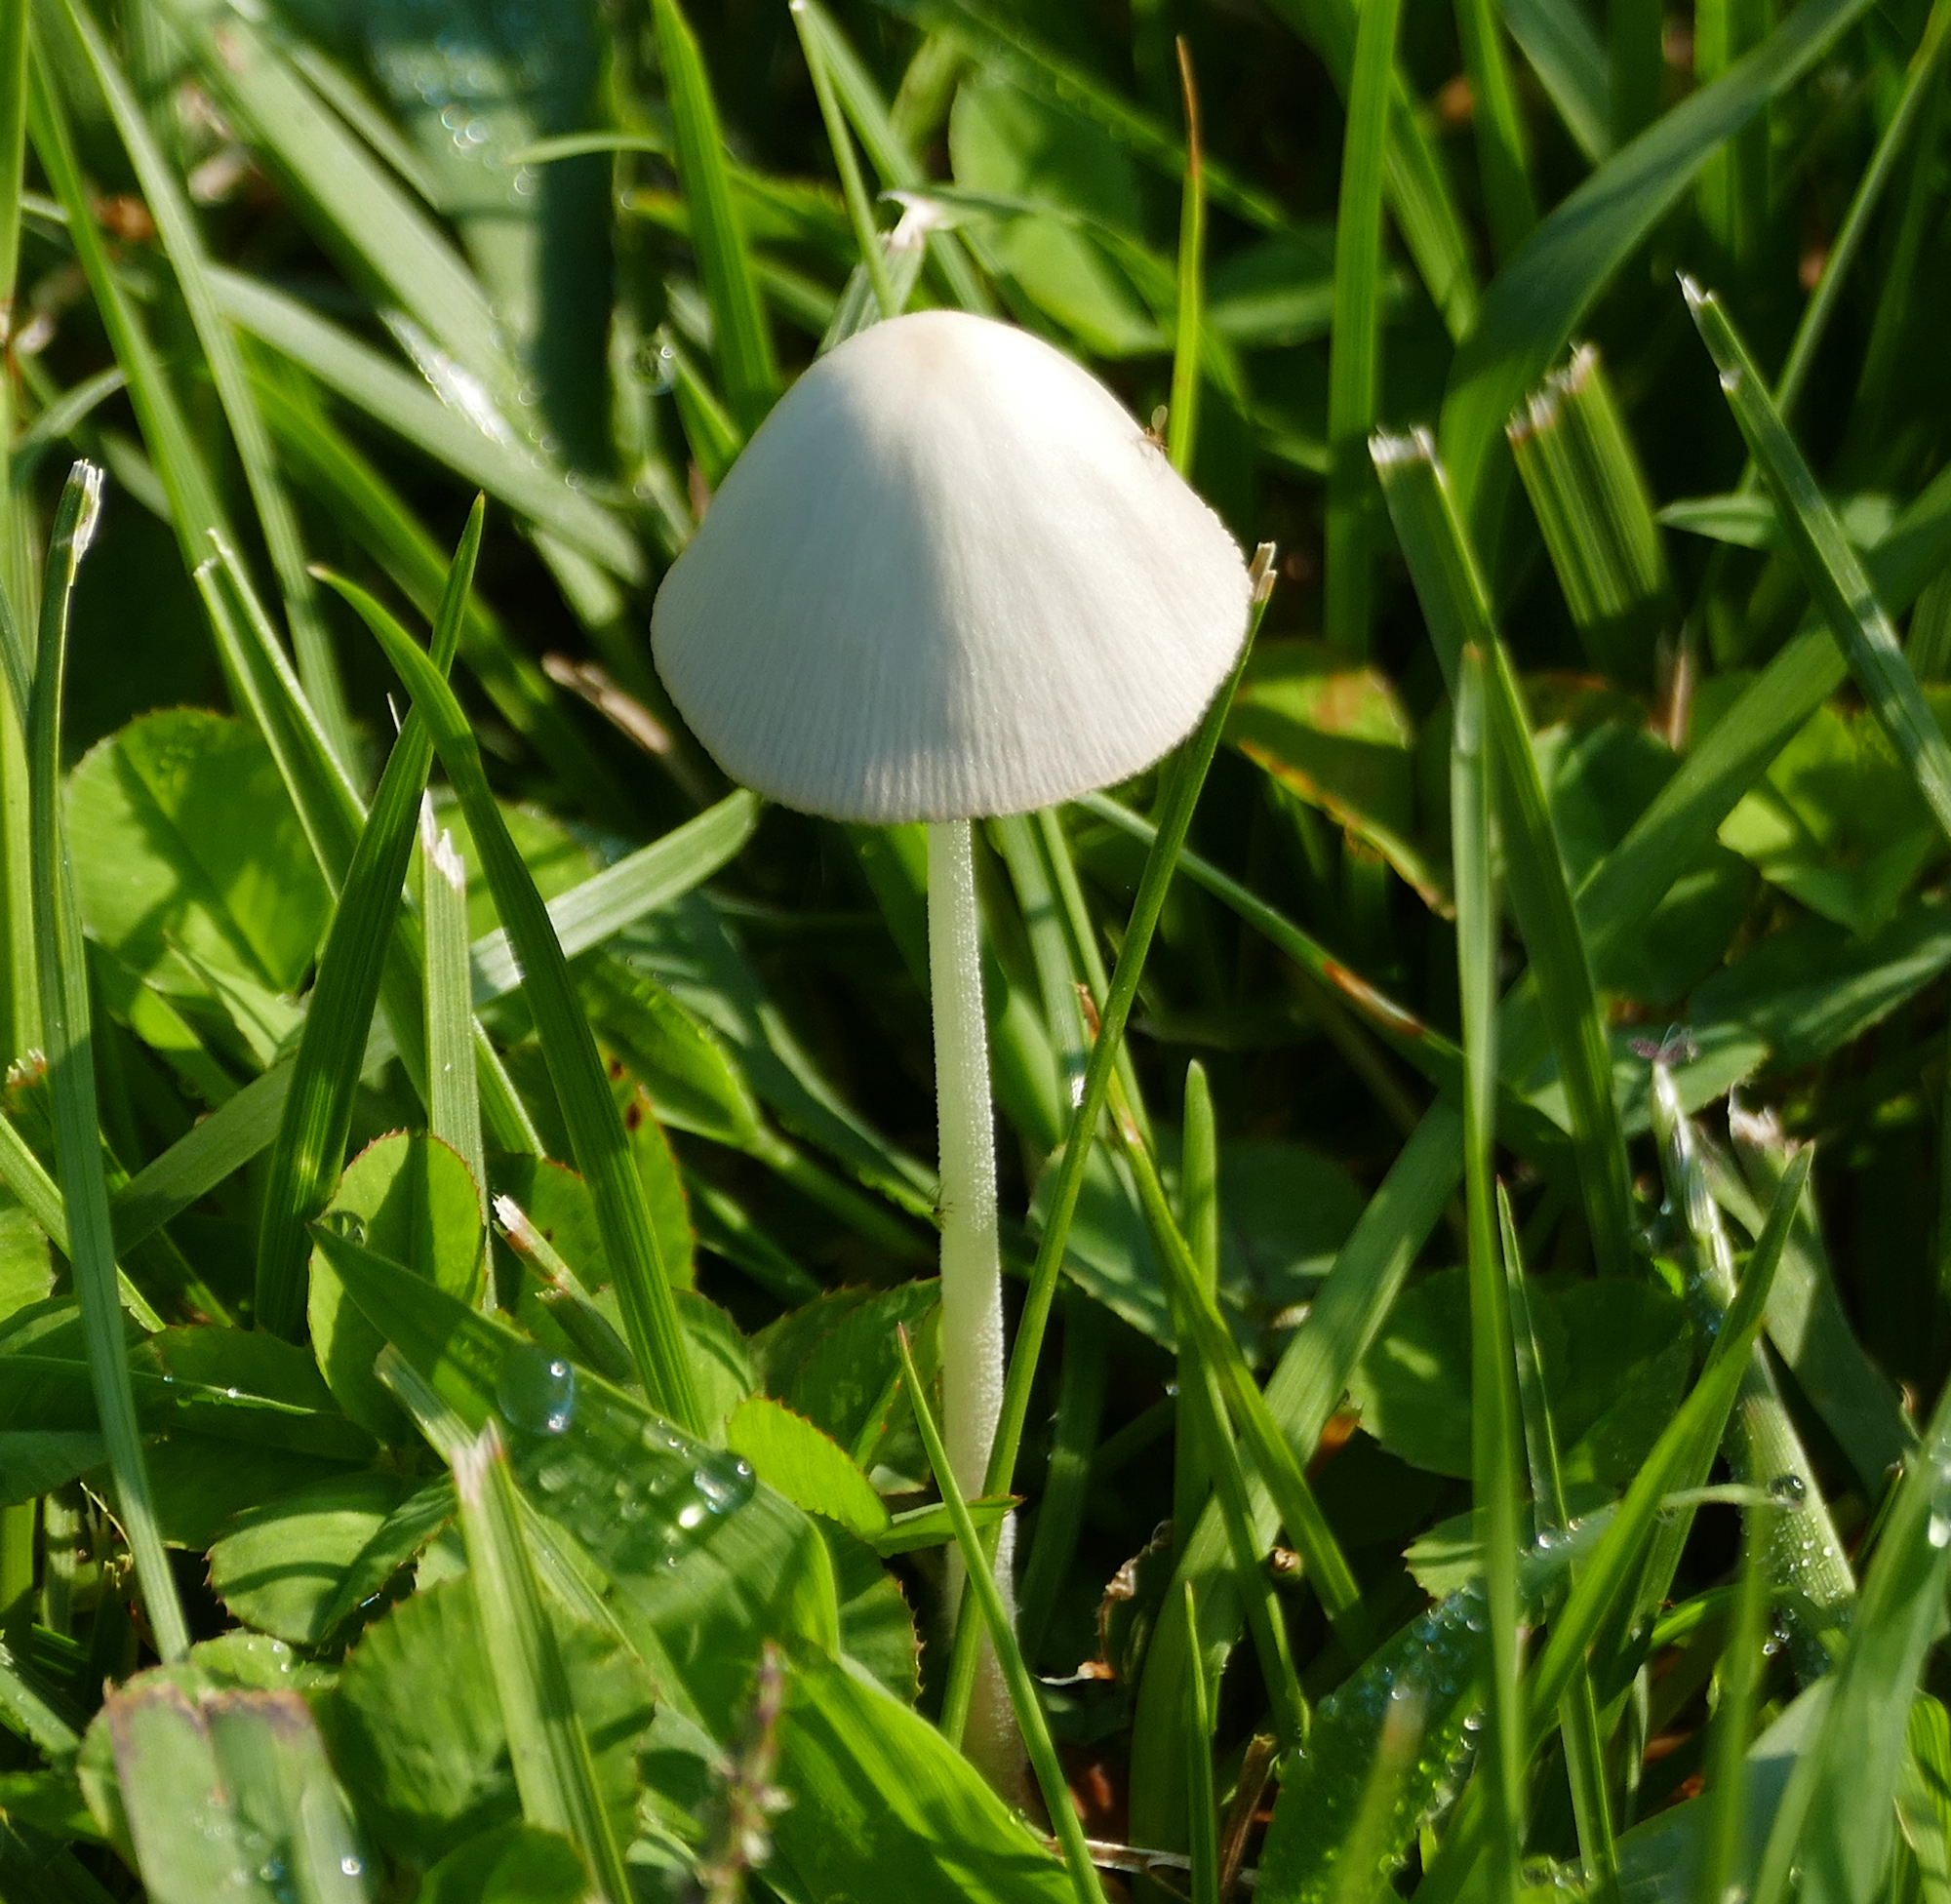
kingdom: Fungi
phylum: Basidiomycota
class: Agaricomycetes
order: Agaricales
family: Bolbitiaceae
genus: Conocybe
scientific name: Conocybe apala
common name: Milky conecap
